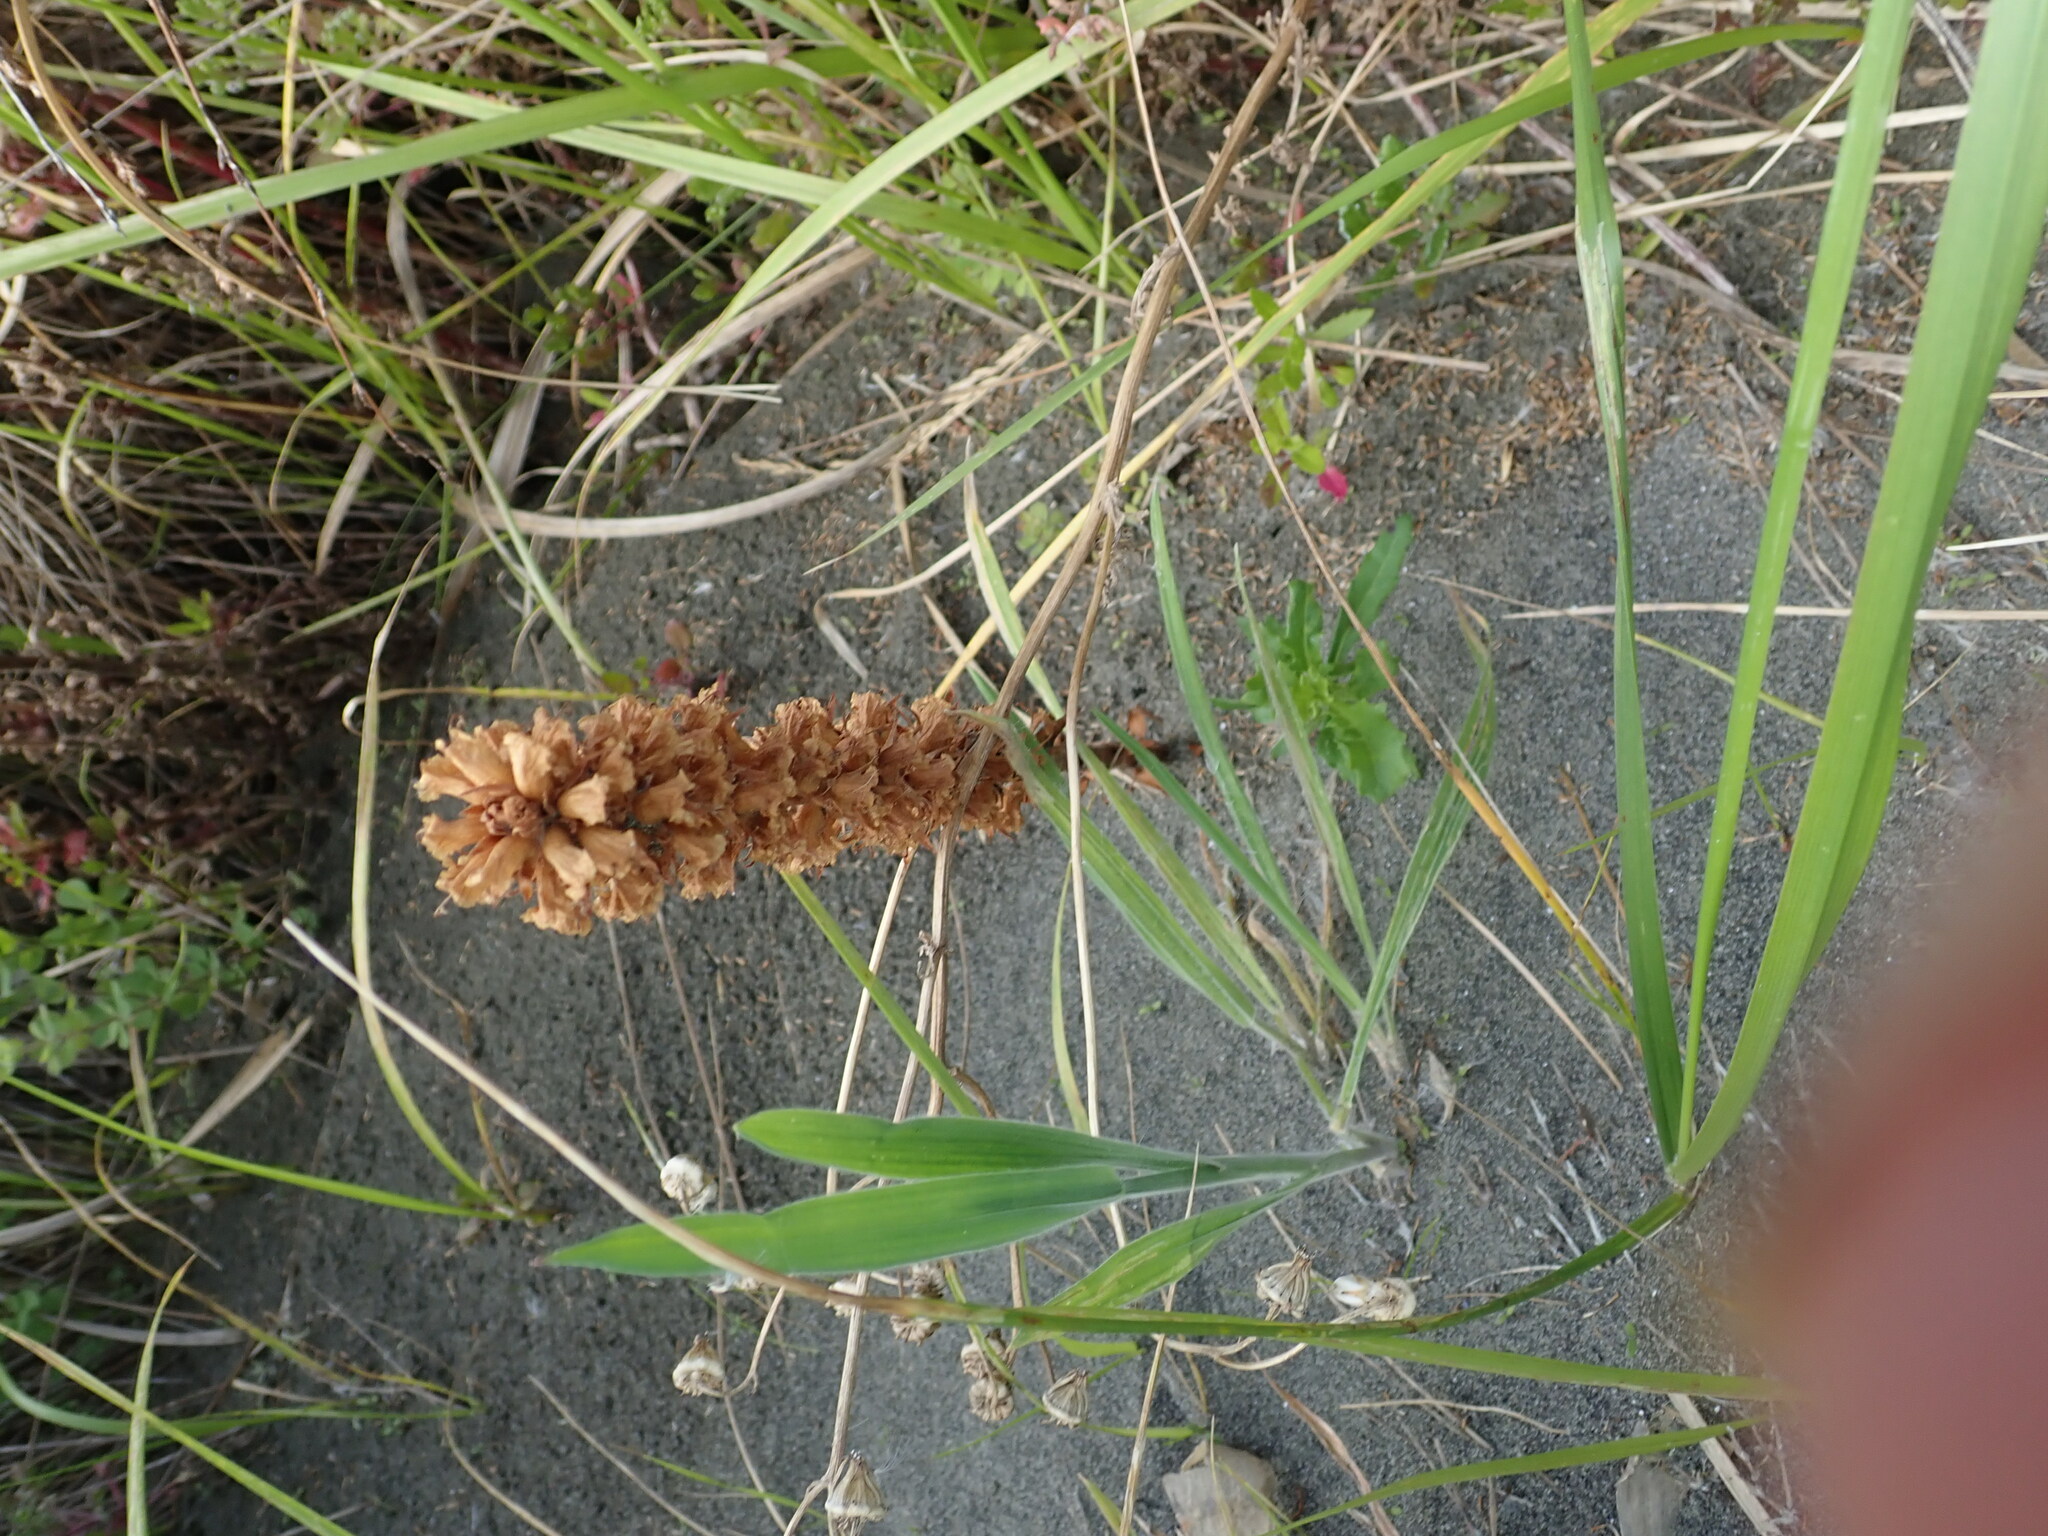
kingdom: Plantae
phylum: Tracheophyta
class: Magnoliopsida
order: Lamiales
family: Orobanchaceae
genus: Orobanche
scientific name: Orobanche minor
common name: Common broomrape
